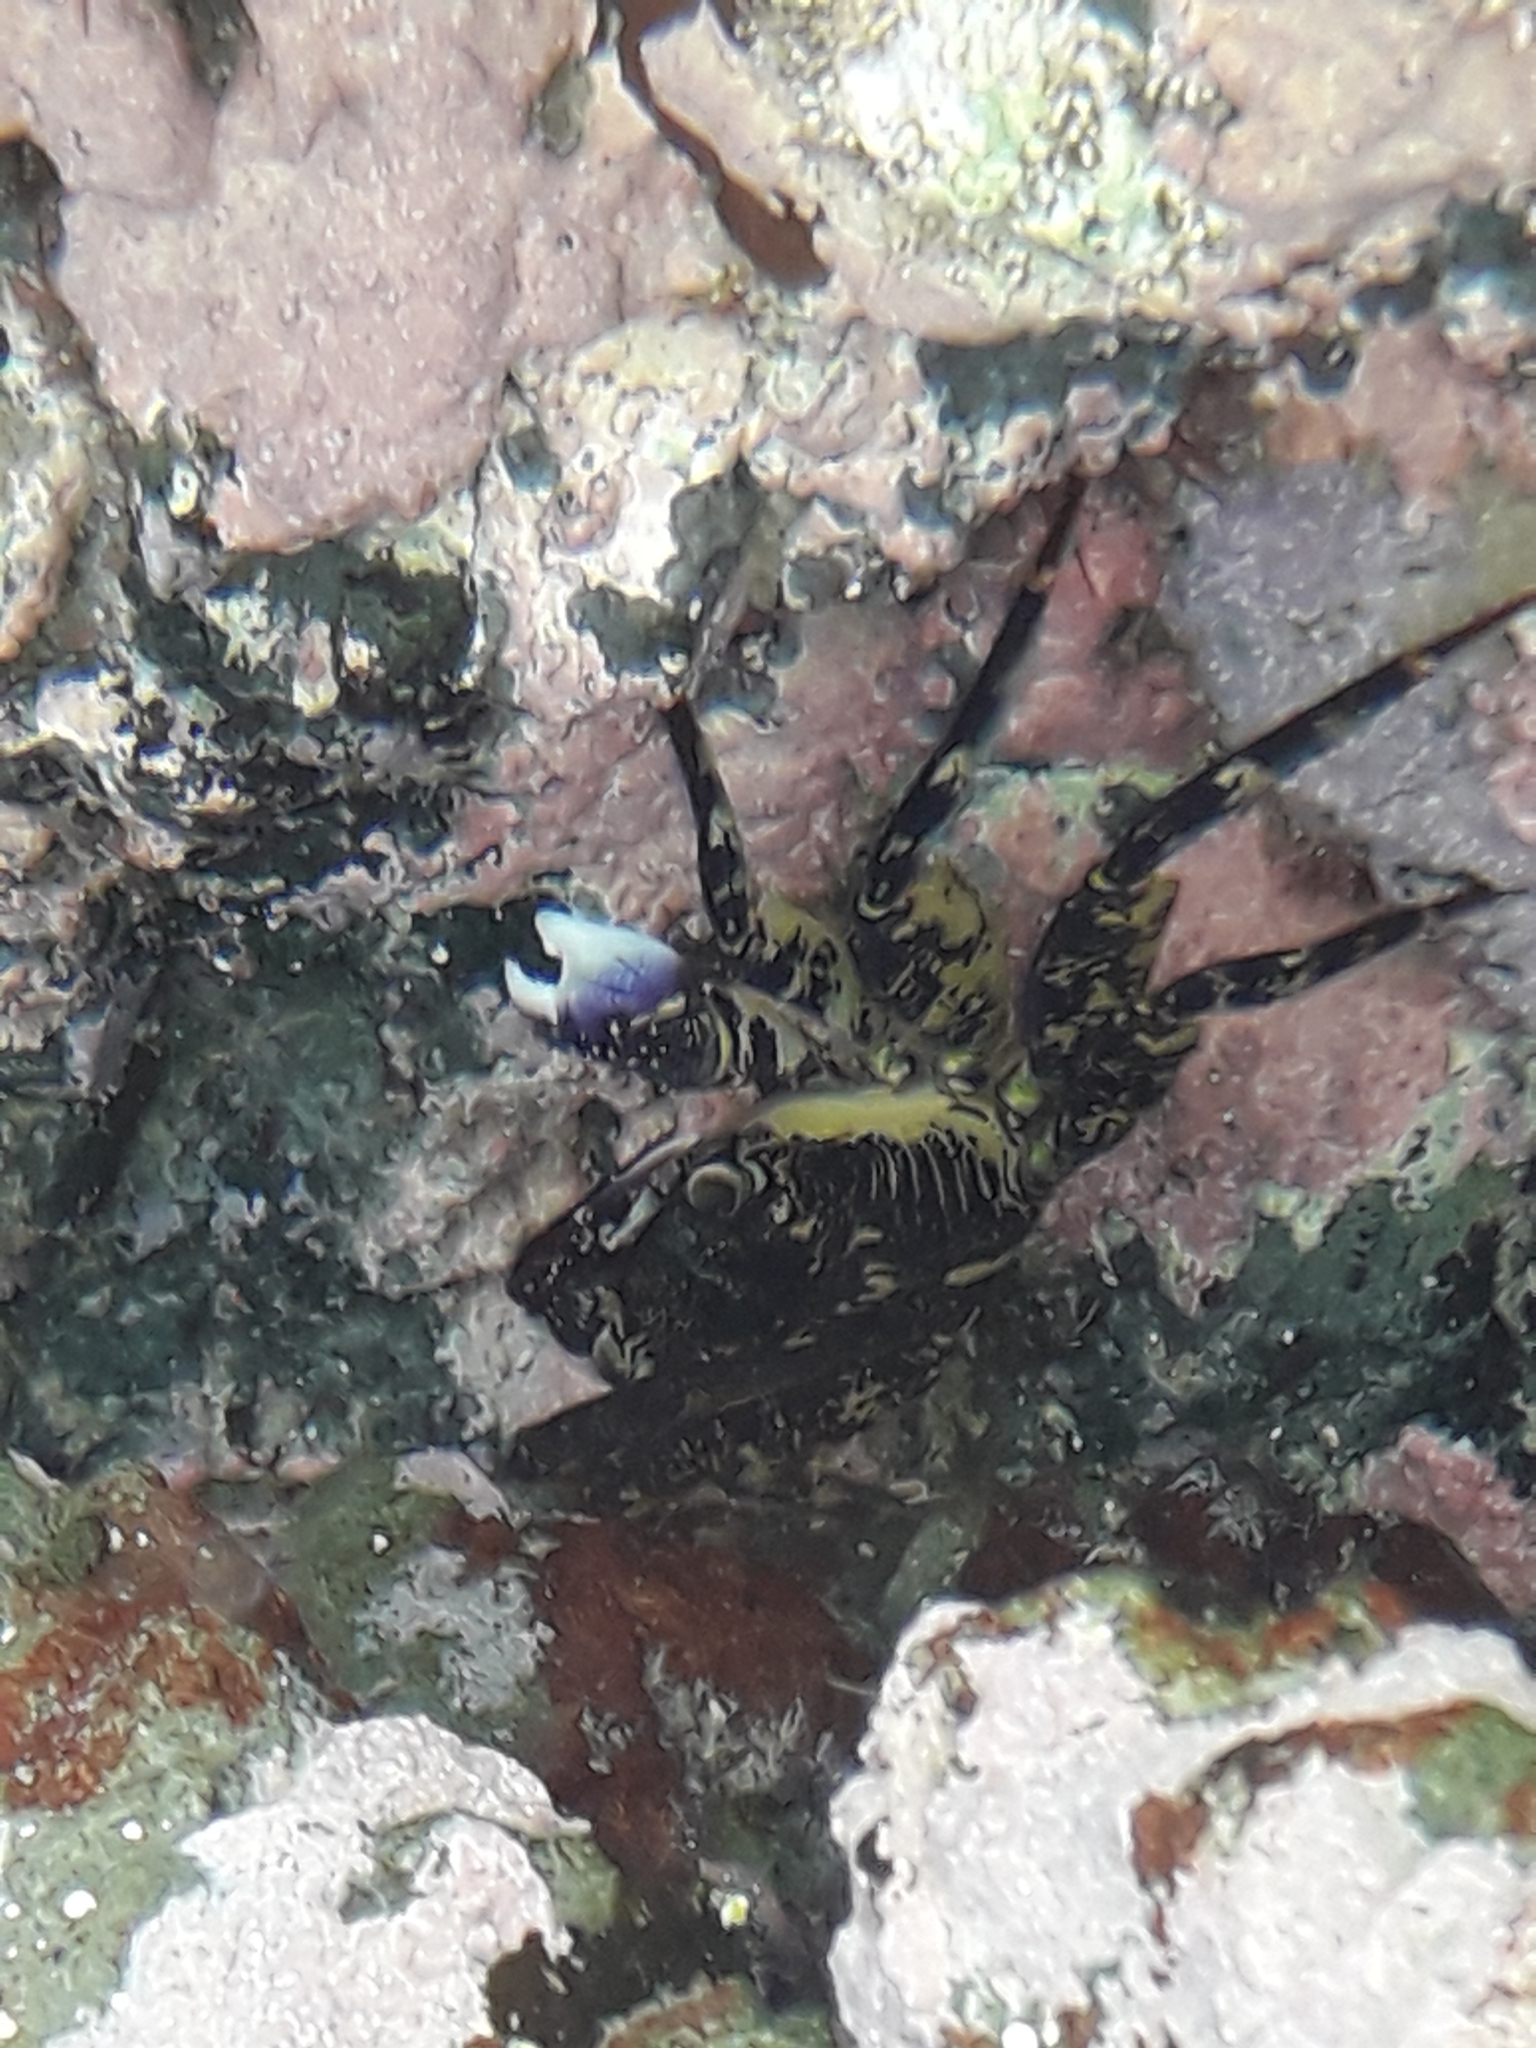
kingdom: Animalia
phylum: Arthropoda
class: Malacostraca
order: Decapoda
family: Grapsidae
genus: Leptograpsus
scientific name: Leptograpsus variegatus
